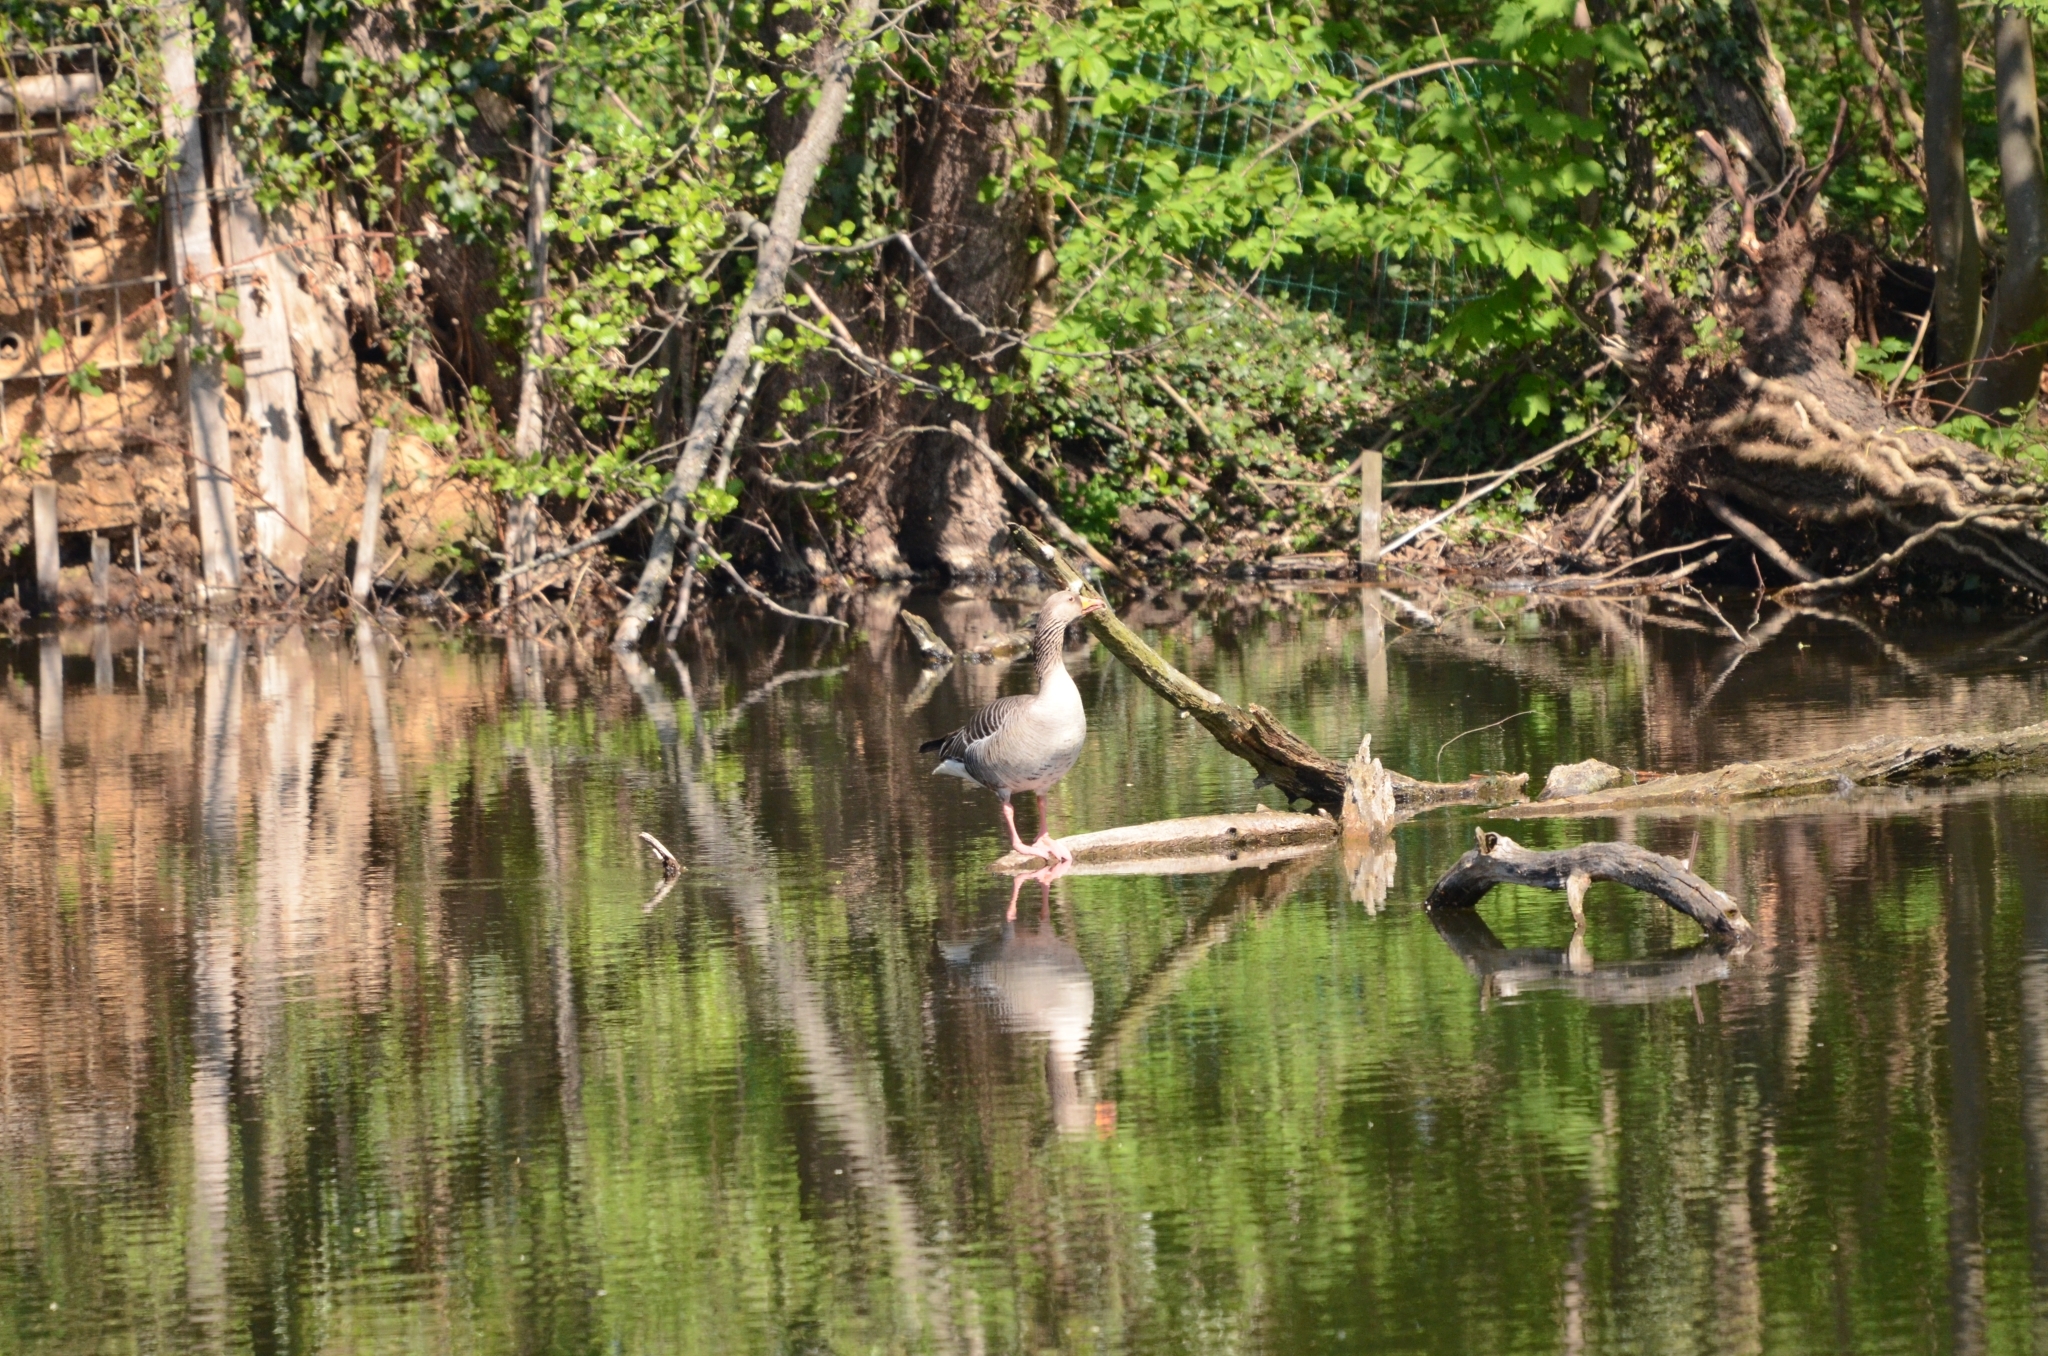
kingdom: Animalia
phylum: Chordata
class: Aves
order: Anseriformes
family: Anatidae
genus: Anser
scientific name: Anser anser
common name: Greylag goose
